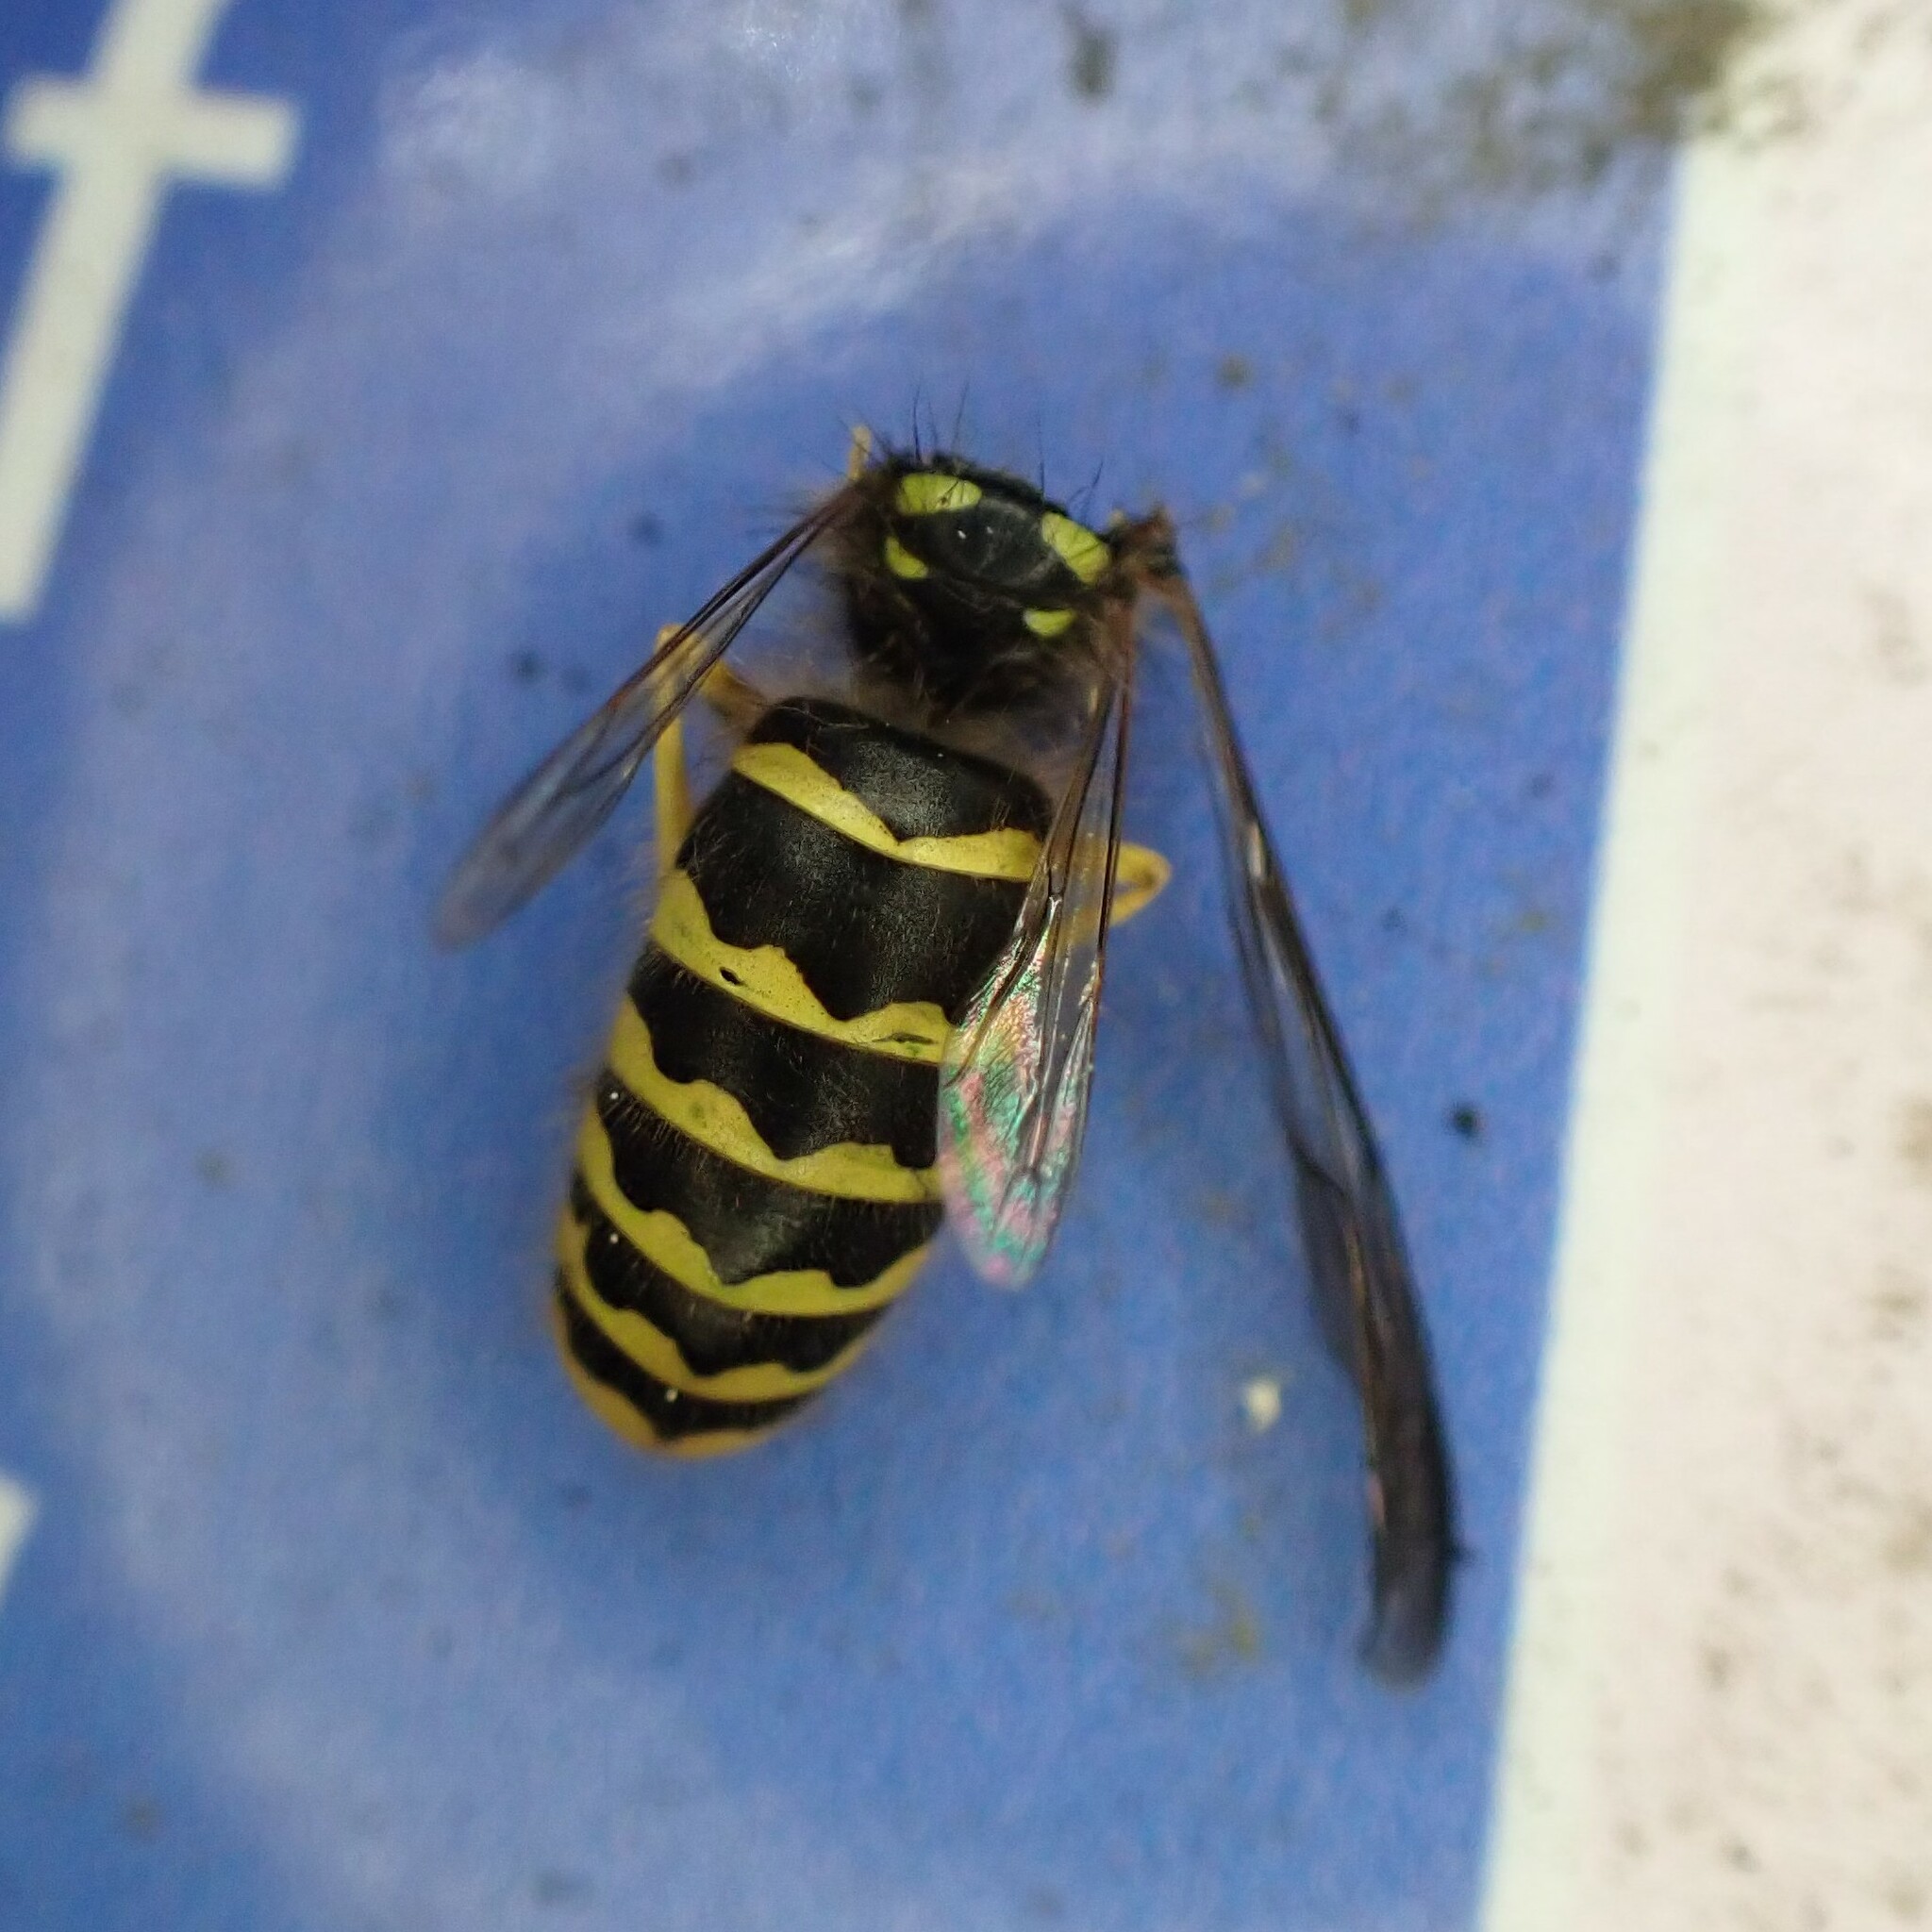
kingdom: Animalia
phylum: Arthropoda
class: Insecta
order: Hymenoptera
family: Vespidae
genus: Vespula
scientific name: Vespula alascensis
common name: Alaska yellowjacket
